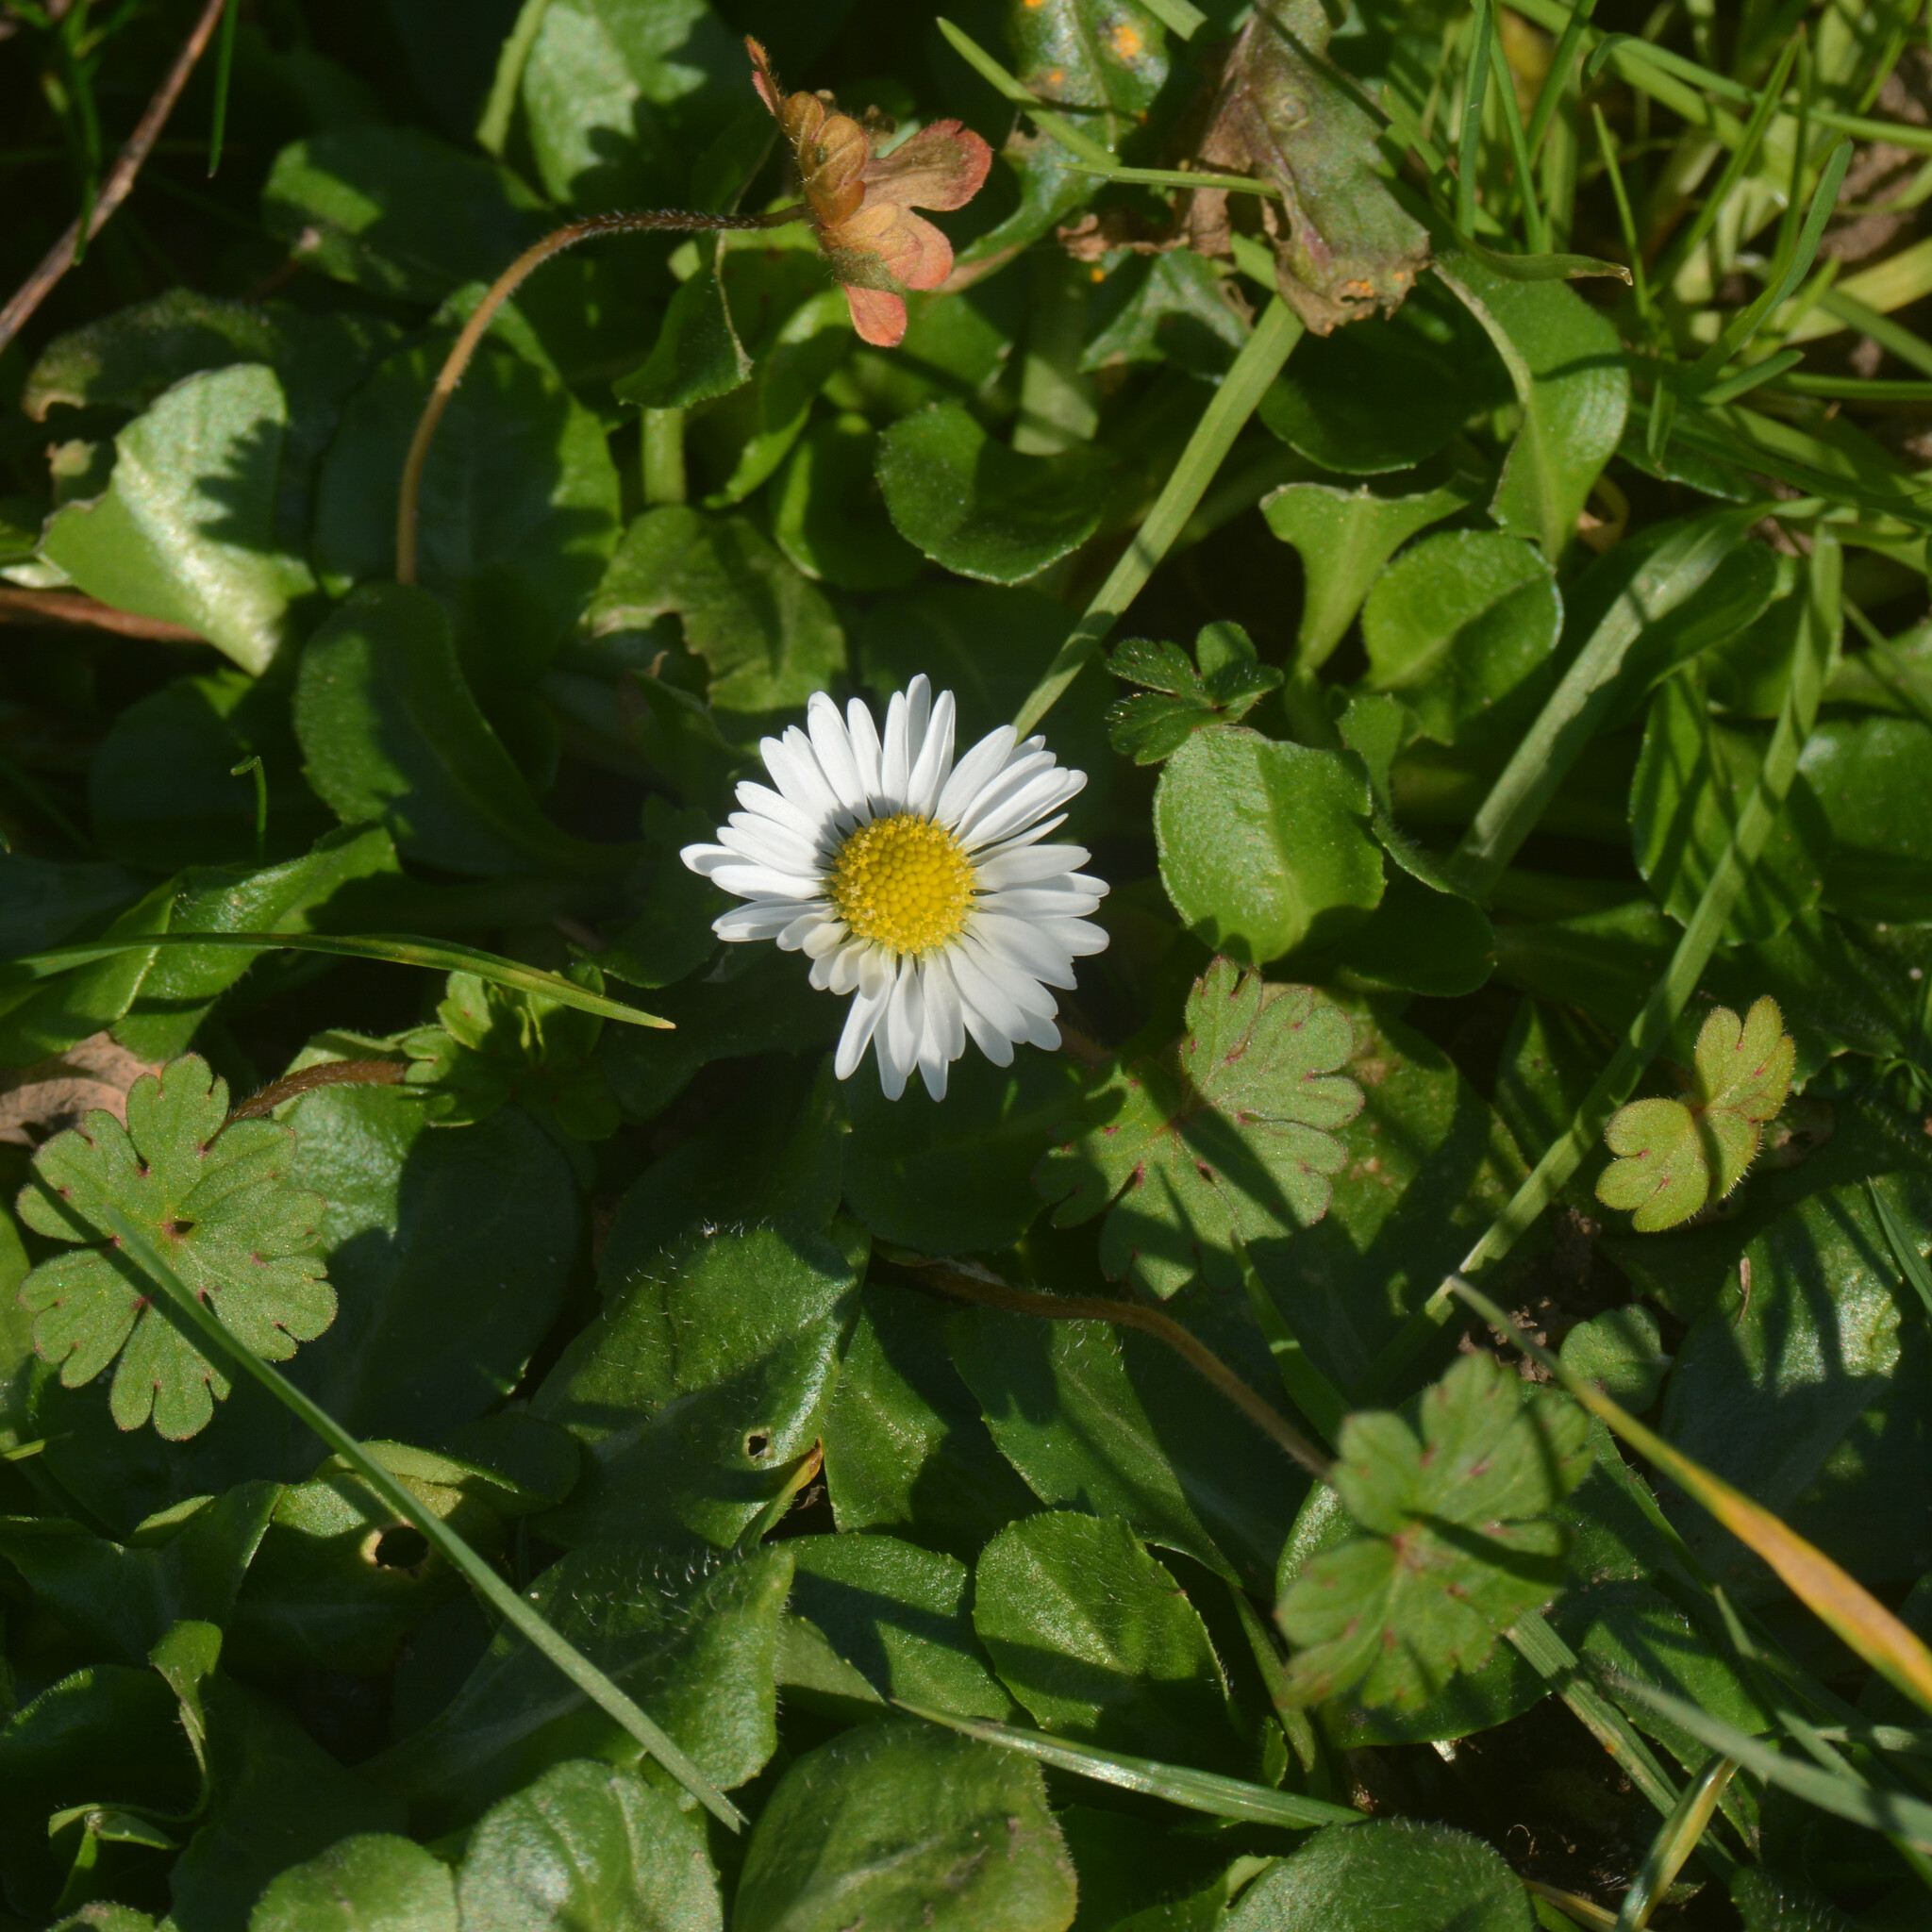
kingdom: Plantae
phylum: Tracheophyta
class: Magnoliopsida
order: Asterales
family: Asteraceae
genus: Bellis
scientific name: Bellis perennis
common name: Lawndaisy
